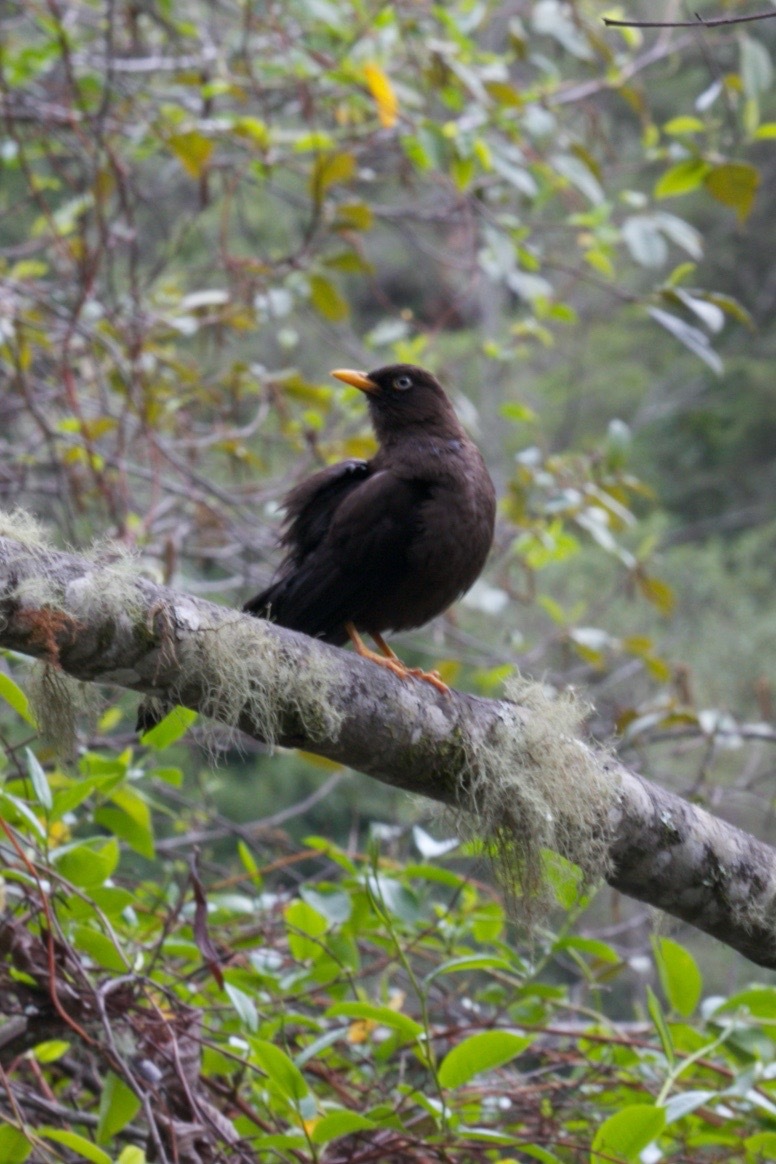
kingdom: Animalia
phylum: Chordata
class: Aves
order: Passeriformes
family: Turdidae
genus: Turdus
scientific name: Turdus nigrescens
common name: Sooty thrush
